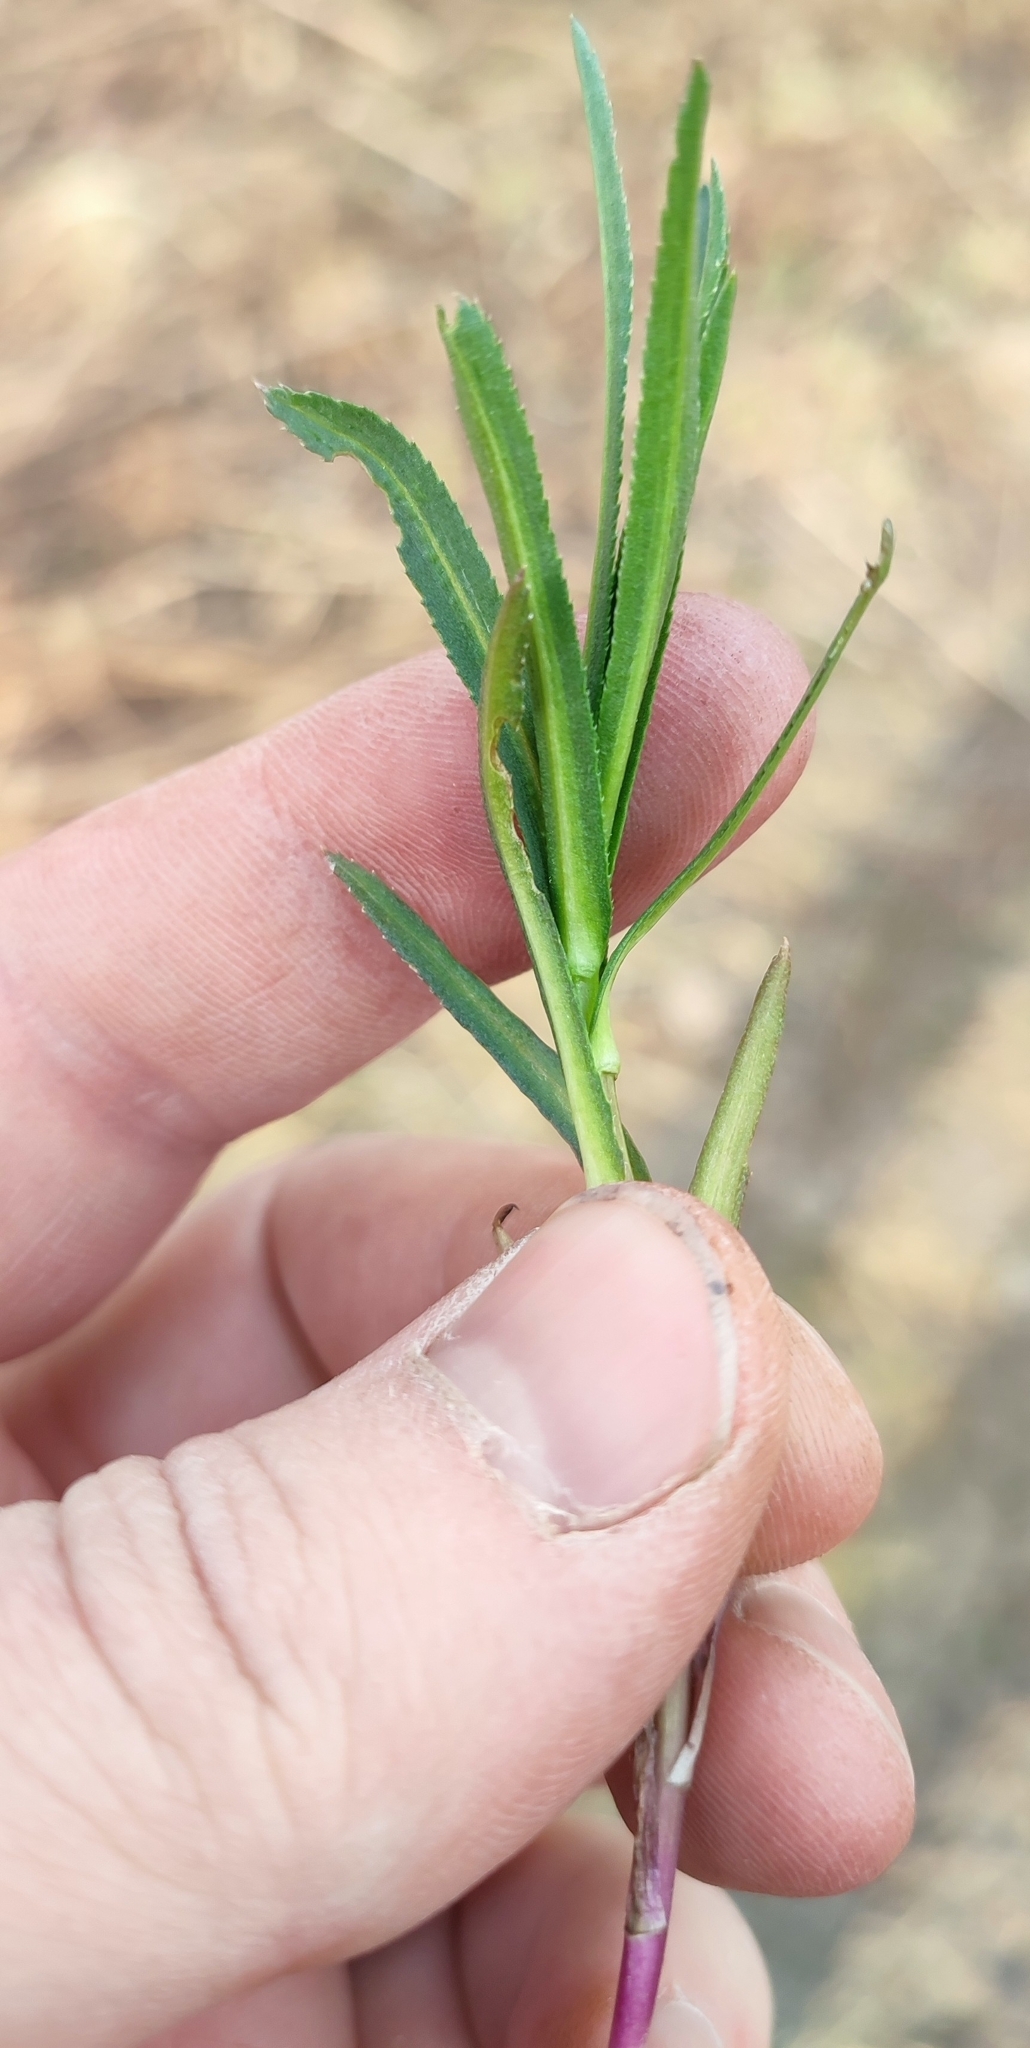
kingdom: Plantae
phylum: Tracheophyta
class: Magnoliopsida
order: Asterales
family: Asteraceae
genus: Achillea
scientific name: Achillea salicifolia
